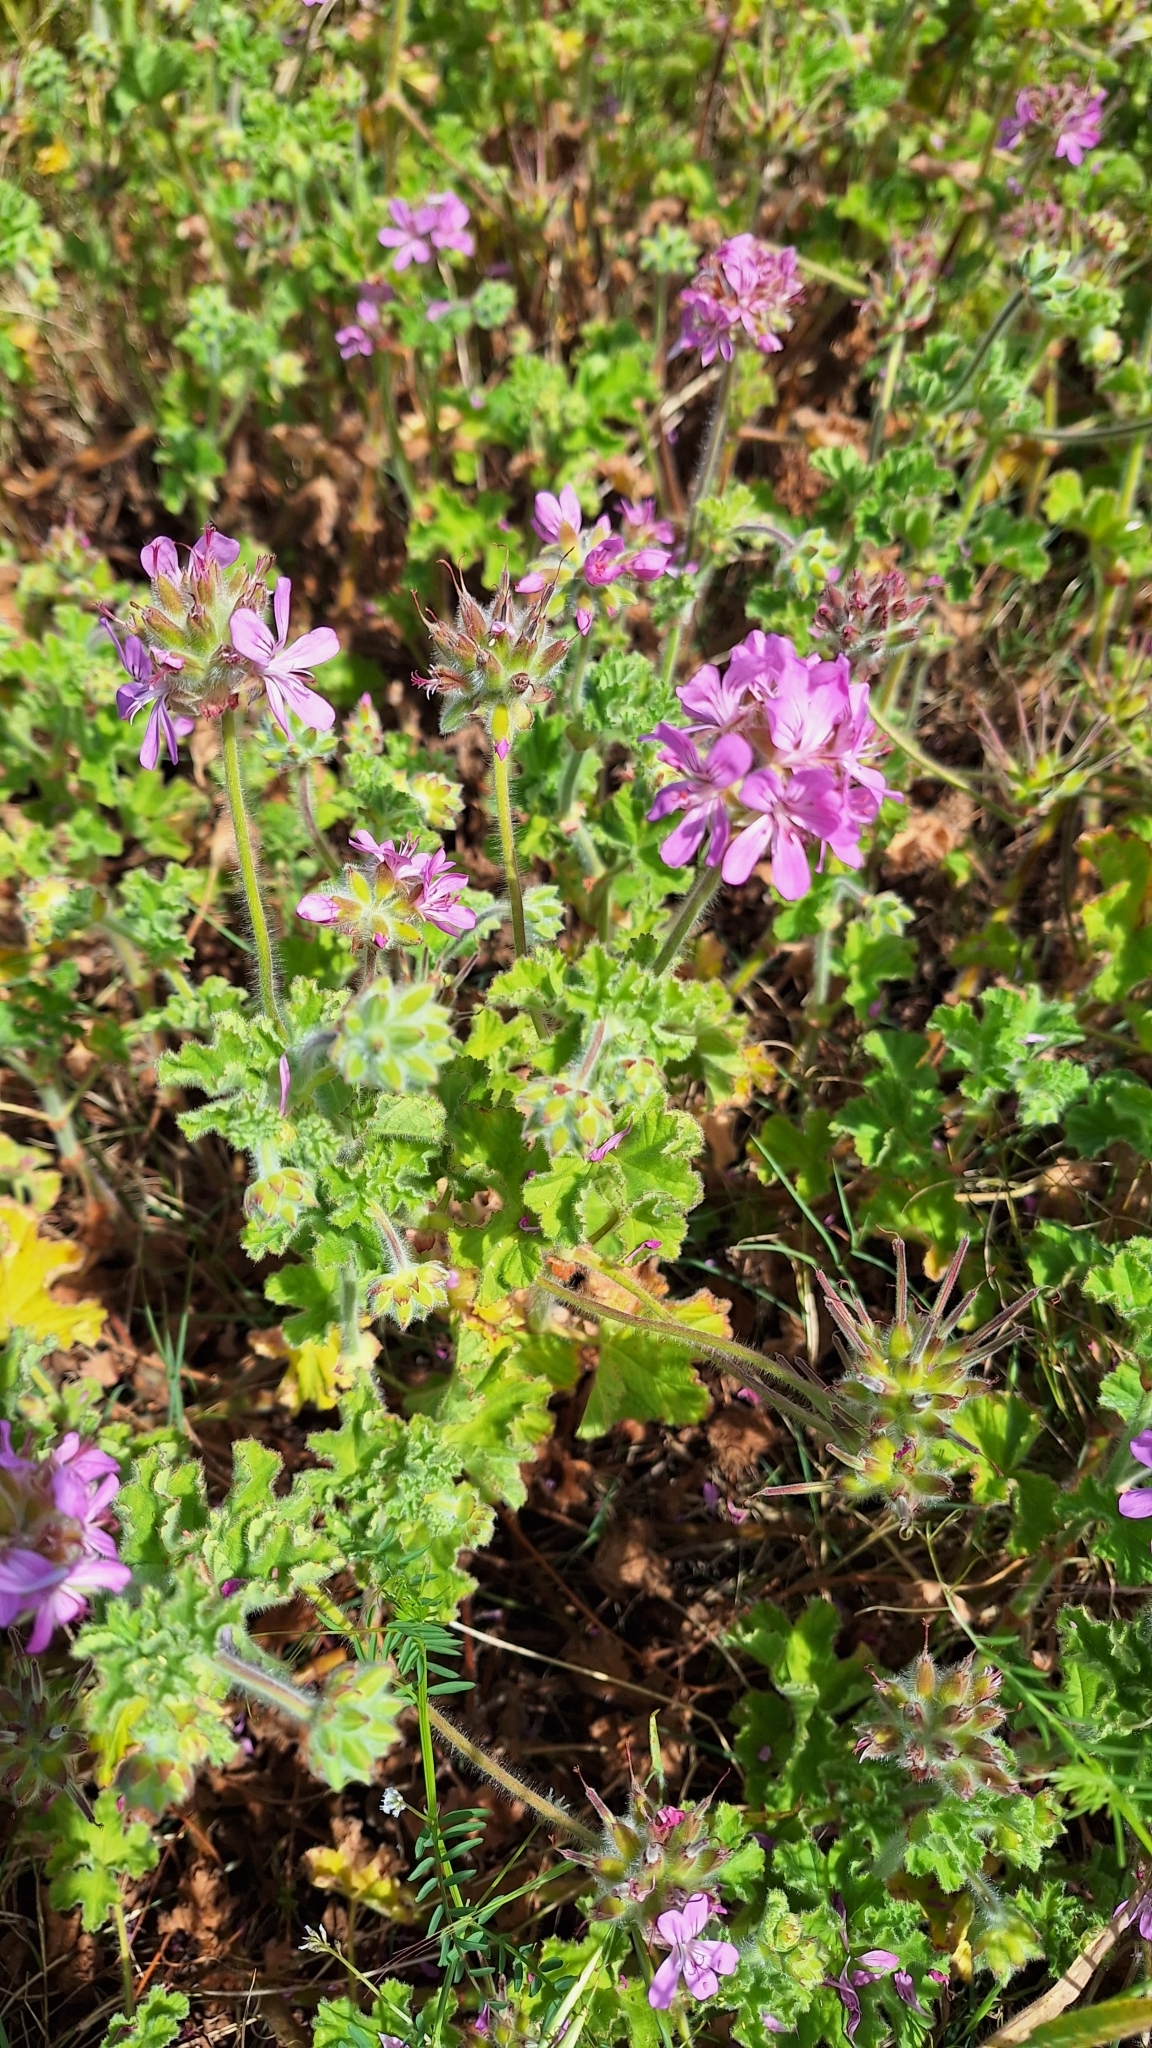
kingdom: Plantae
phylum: Tracheophyta
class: Magnoliopsida
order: Geraniales
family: Geraniaceae
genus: Pelargonium
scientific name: Pelargonium capitatum
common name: Rose scented geranium
